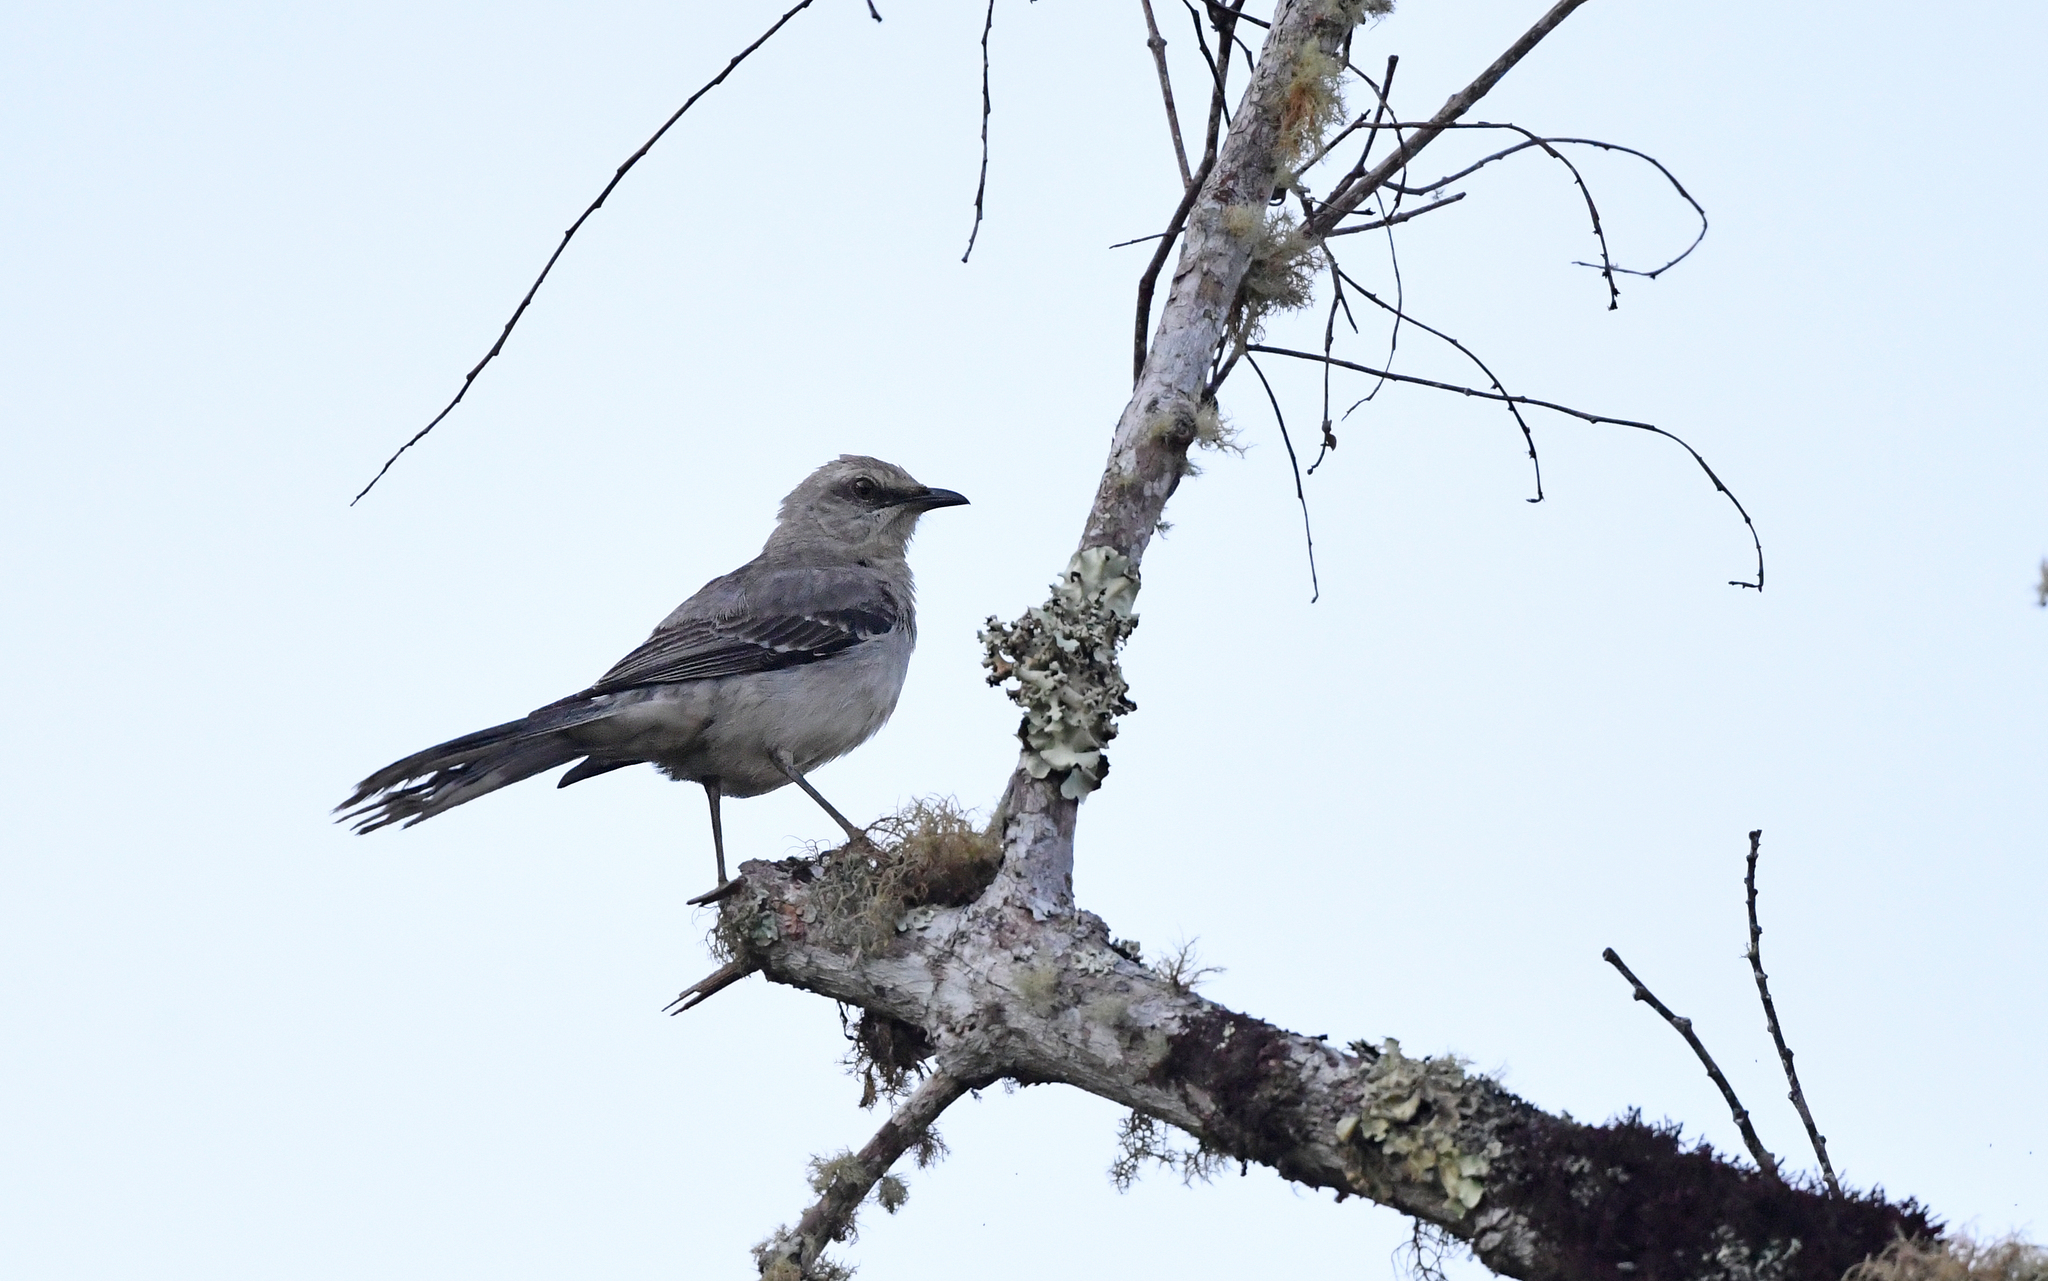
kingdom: Animalia
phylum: Chordata
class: Aves
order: Passeriformes
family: Mimidae
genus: Mimus
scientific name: Mimus gilvus
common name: Tropical mockingbird
